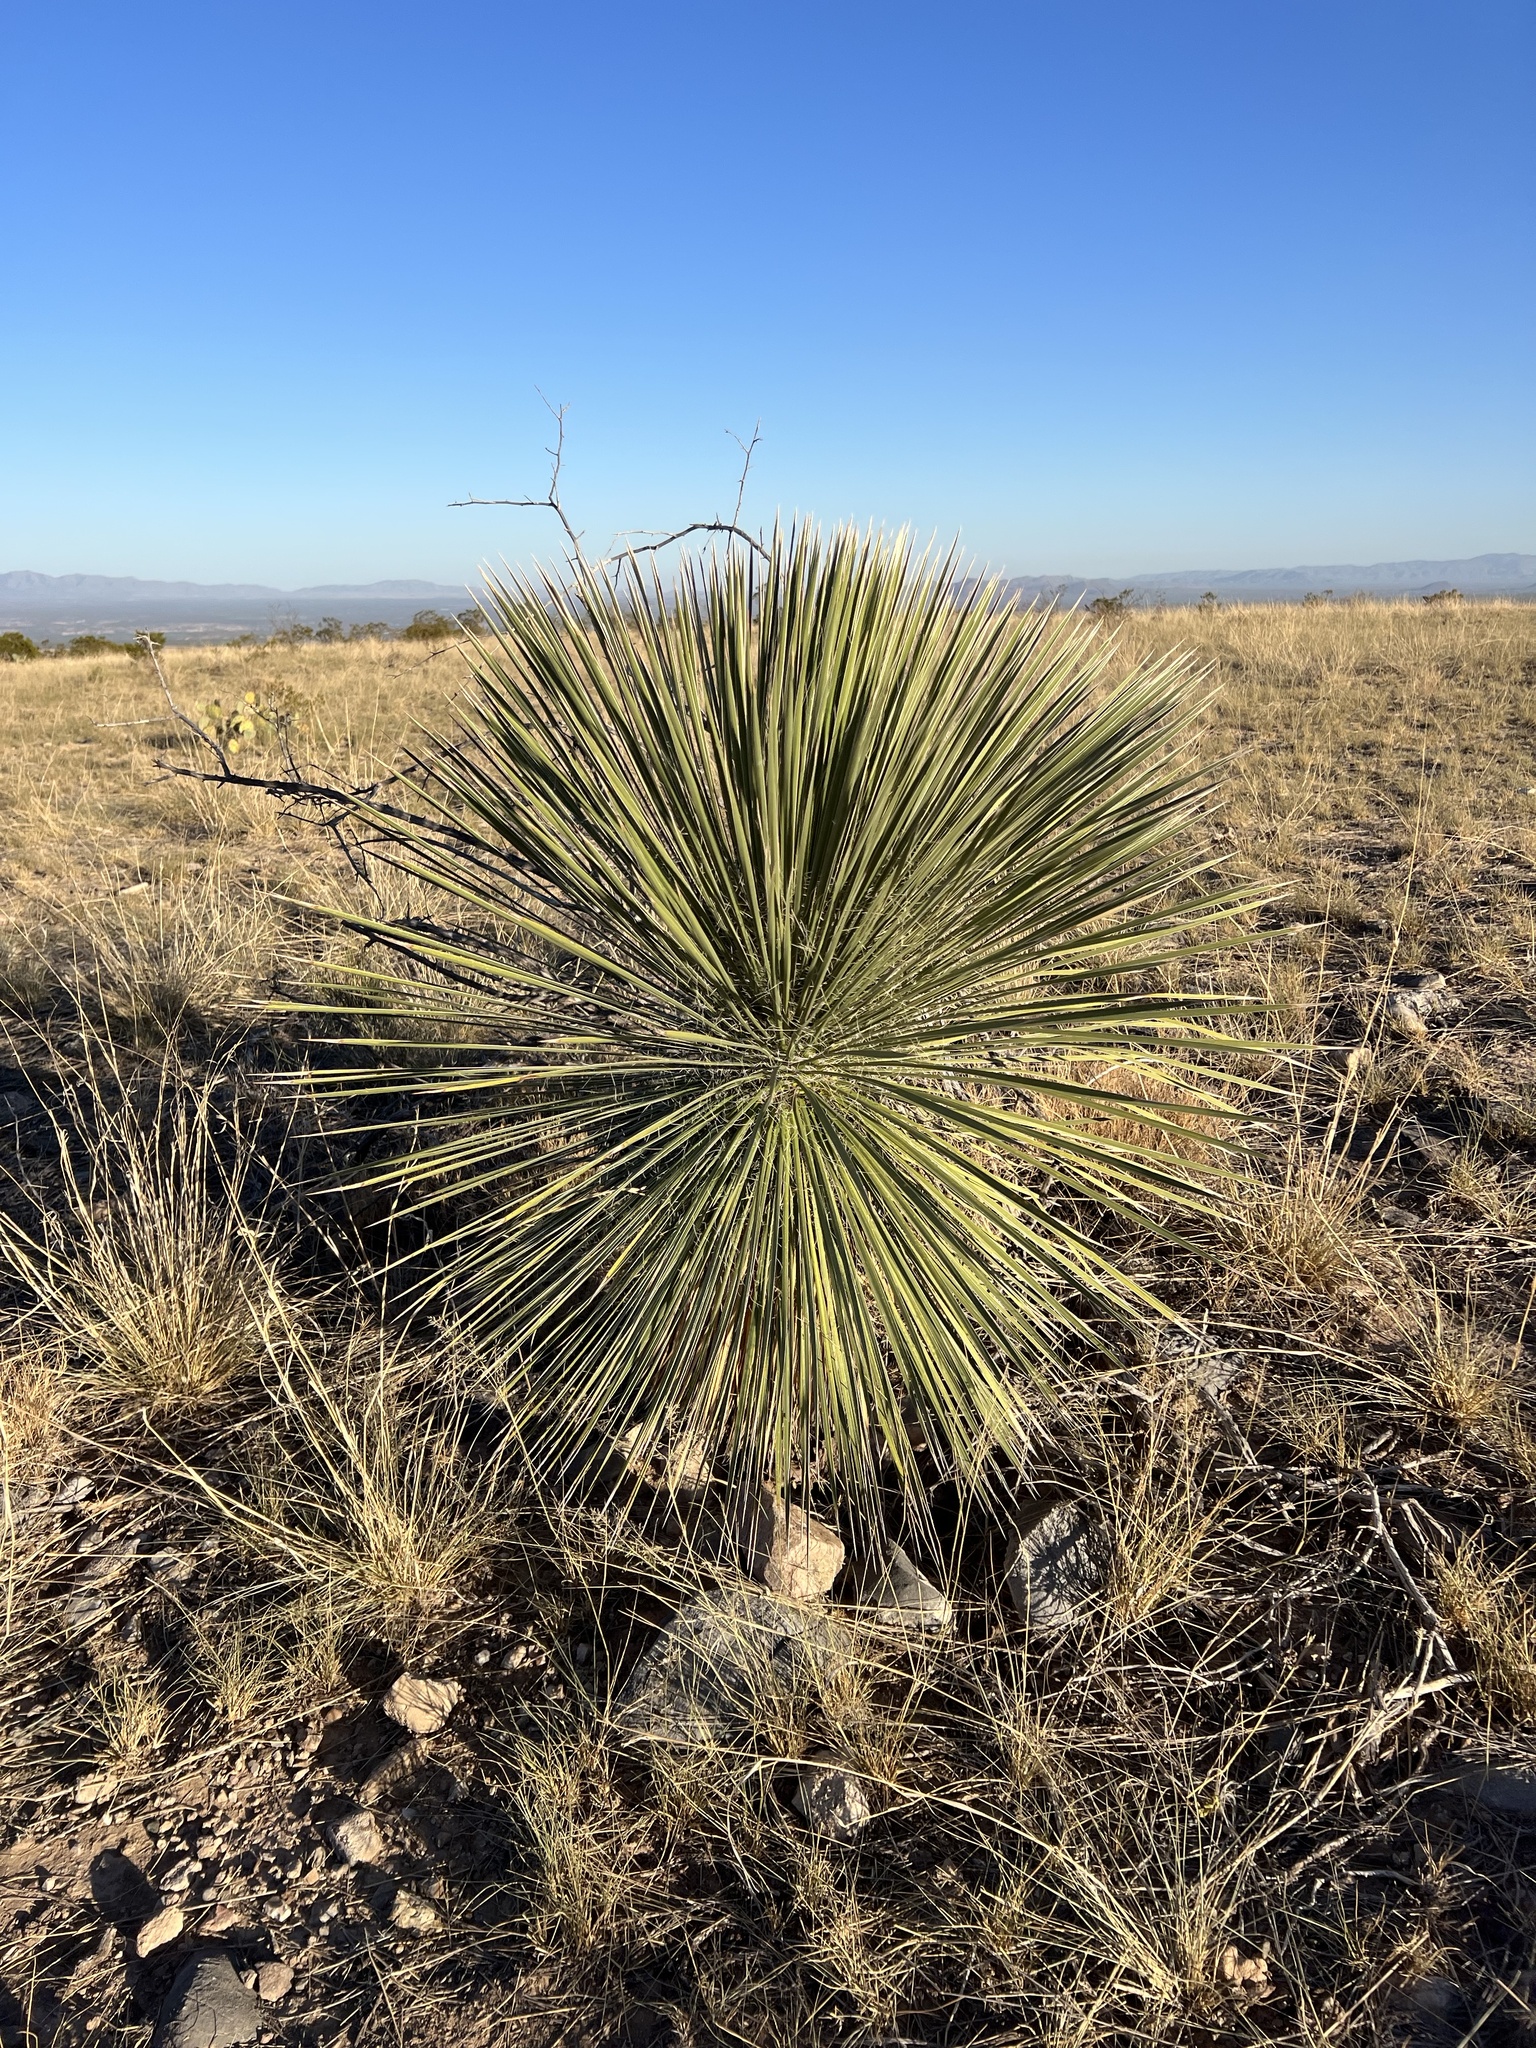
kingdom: Plantae
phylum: Tracheophyta
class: Liliopsida
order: Asparagales
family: Asparagaceae
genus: Yucca
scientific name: Yucca elata
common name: Palmella
